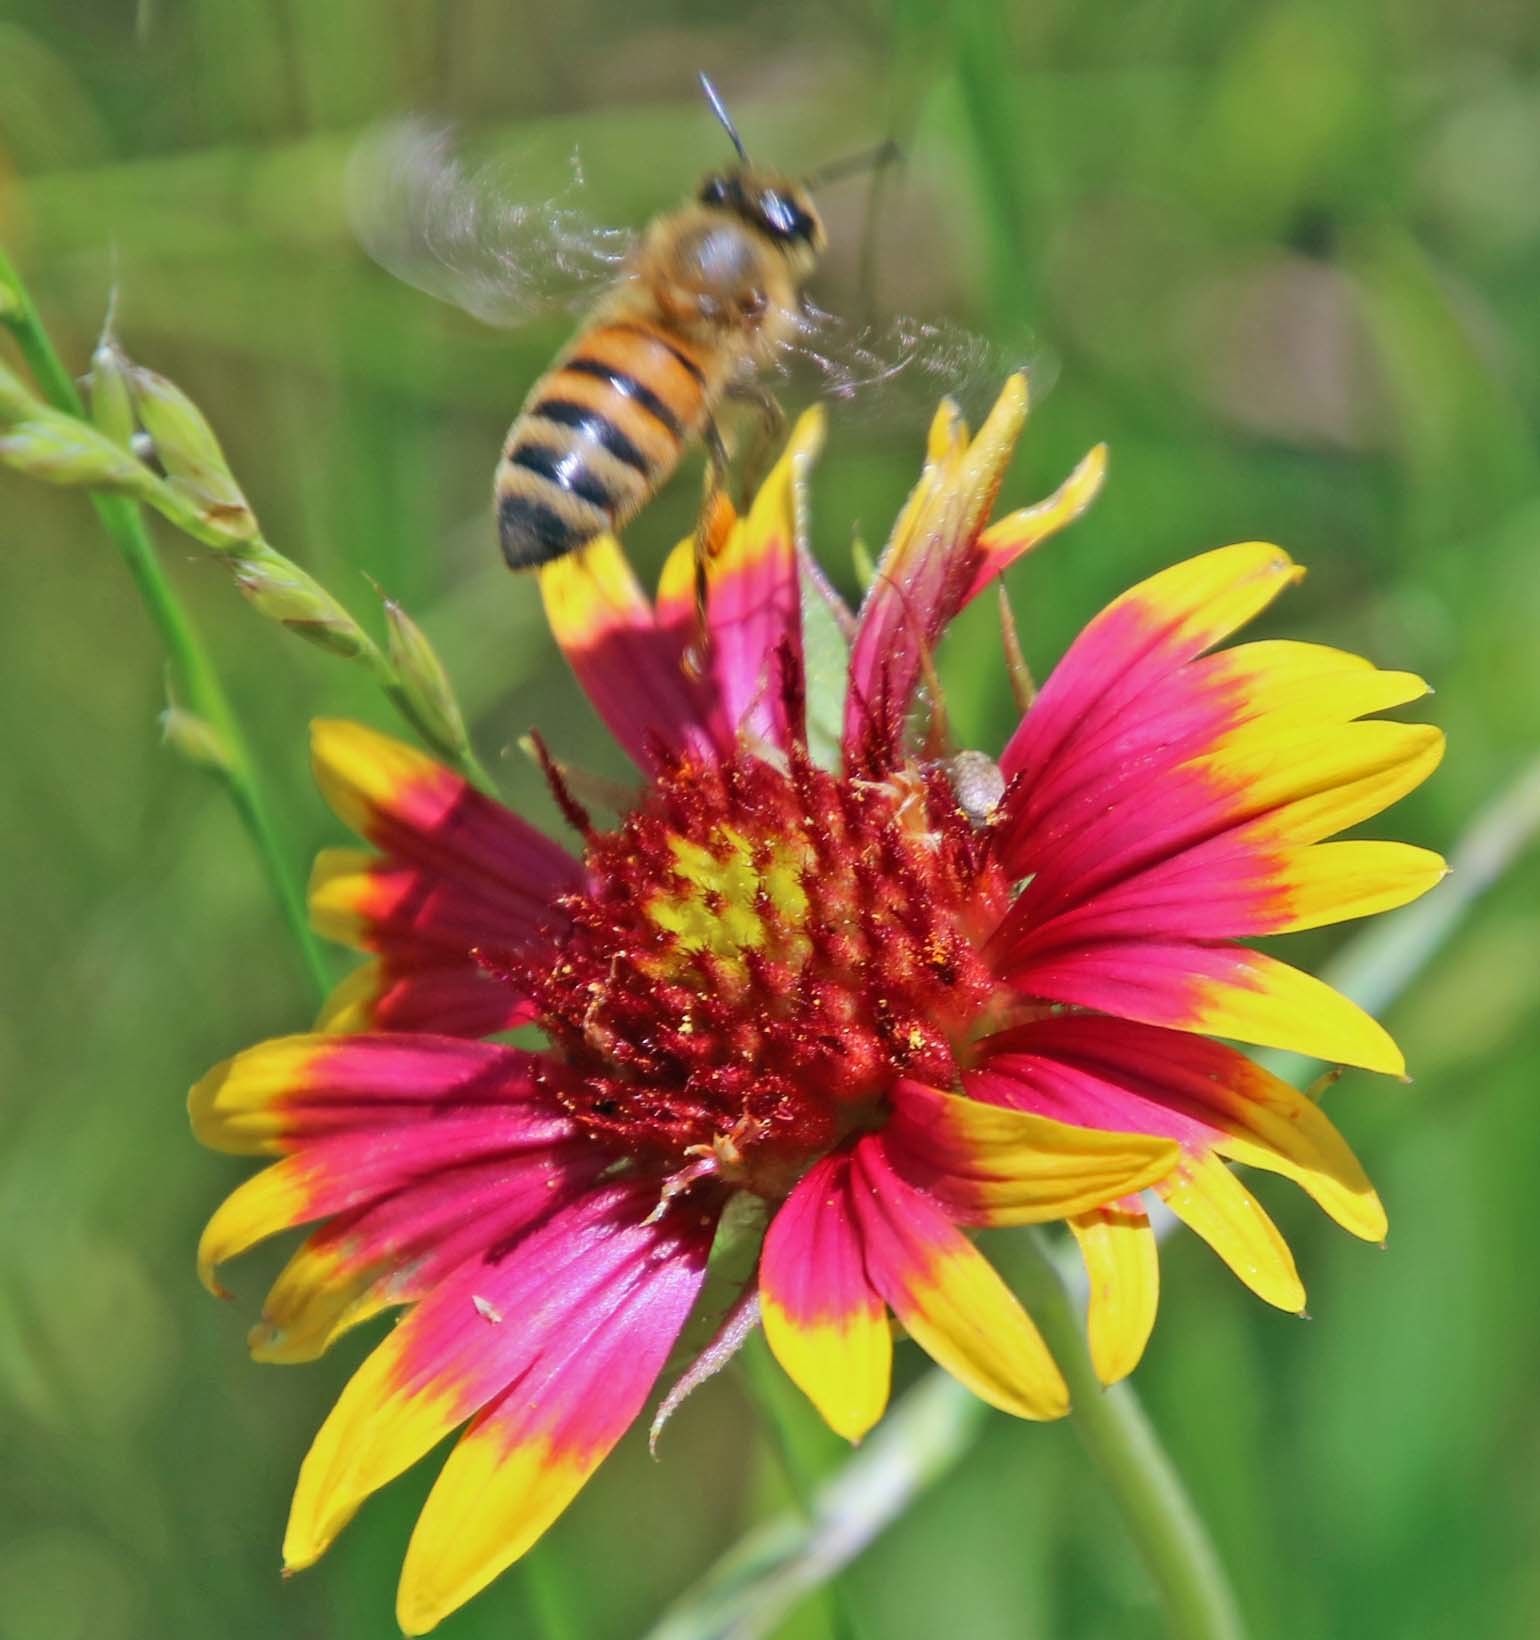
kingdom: Animalia
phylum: Arthropoda
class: Insecta
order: Hymenoptera
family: Apidae
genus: Apis
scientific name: Apis mellifera
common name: Honey bee
